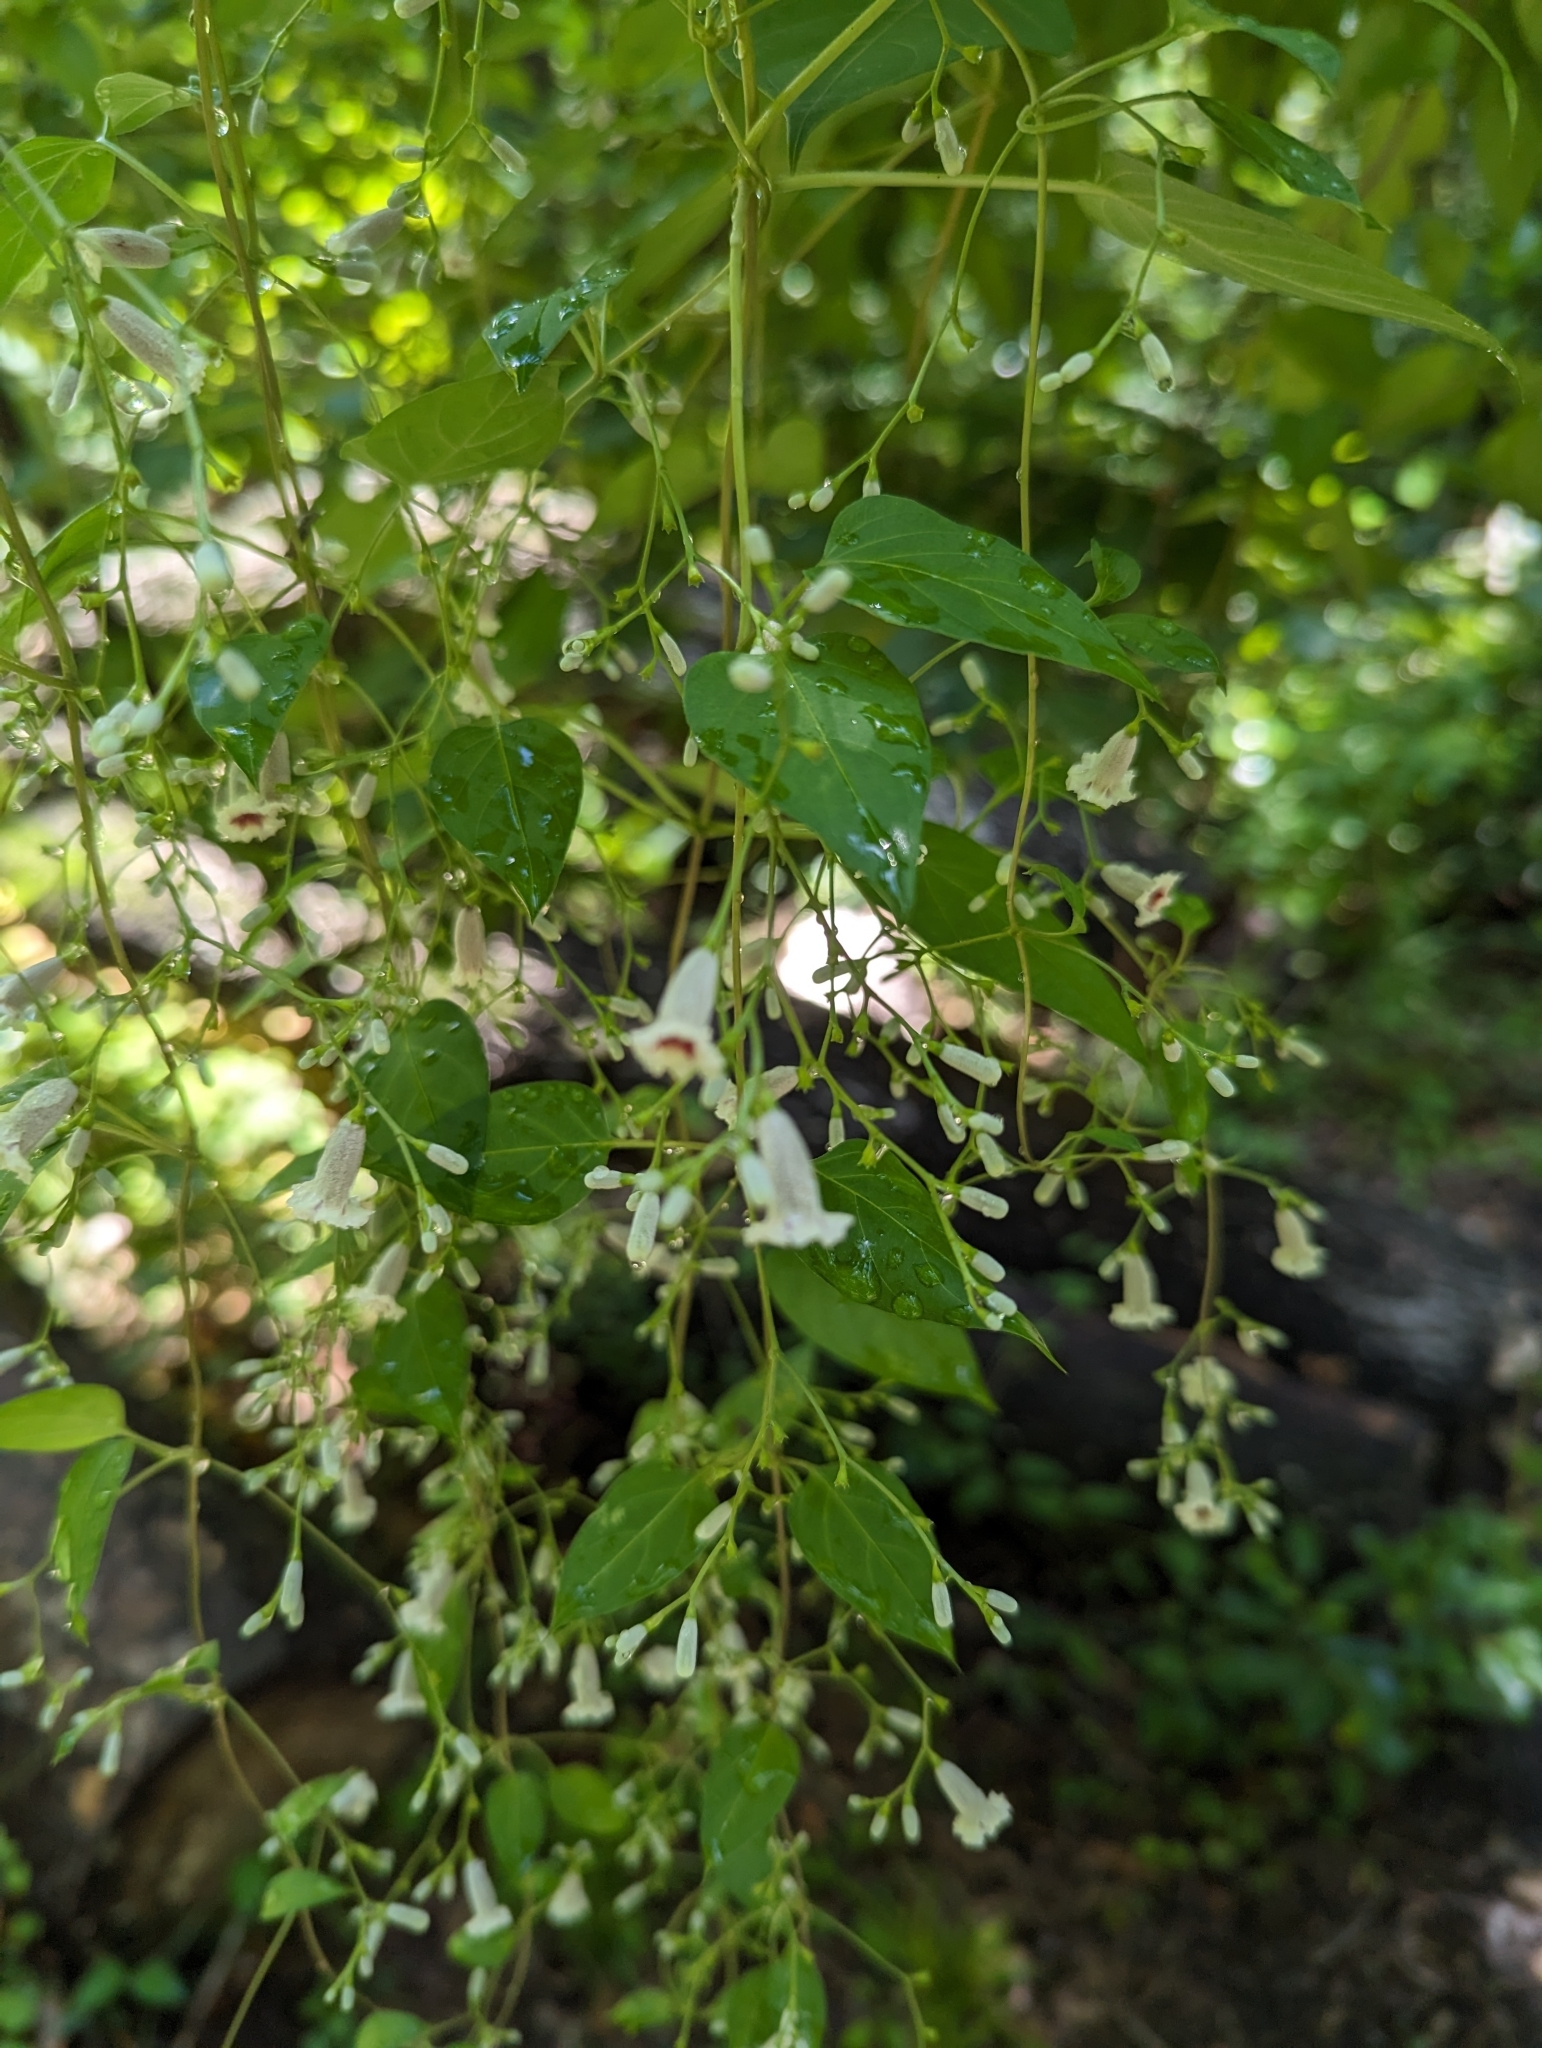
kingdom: Plantae
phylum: Tracheophyta
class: Magnoliopsida
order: Gentianales
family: Rubiaceae
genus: Paederia
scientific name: Paederia foetida
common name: Stinkvine
